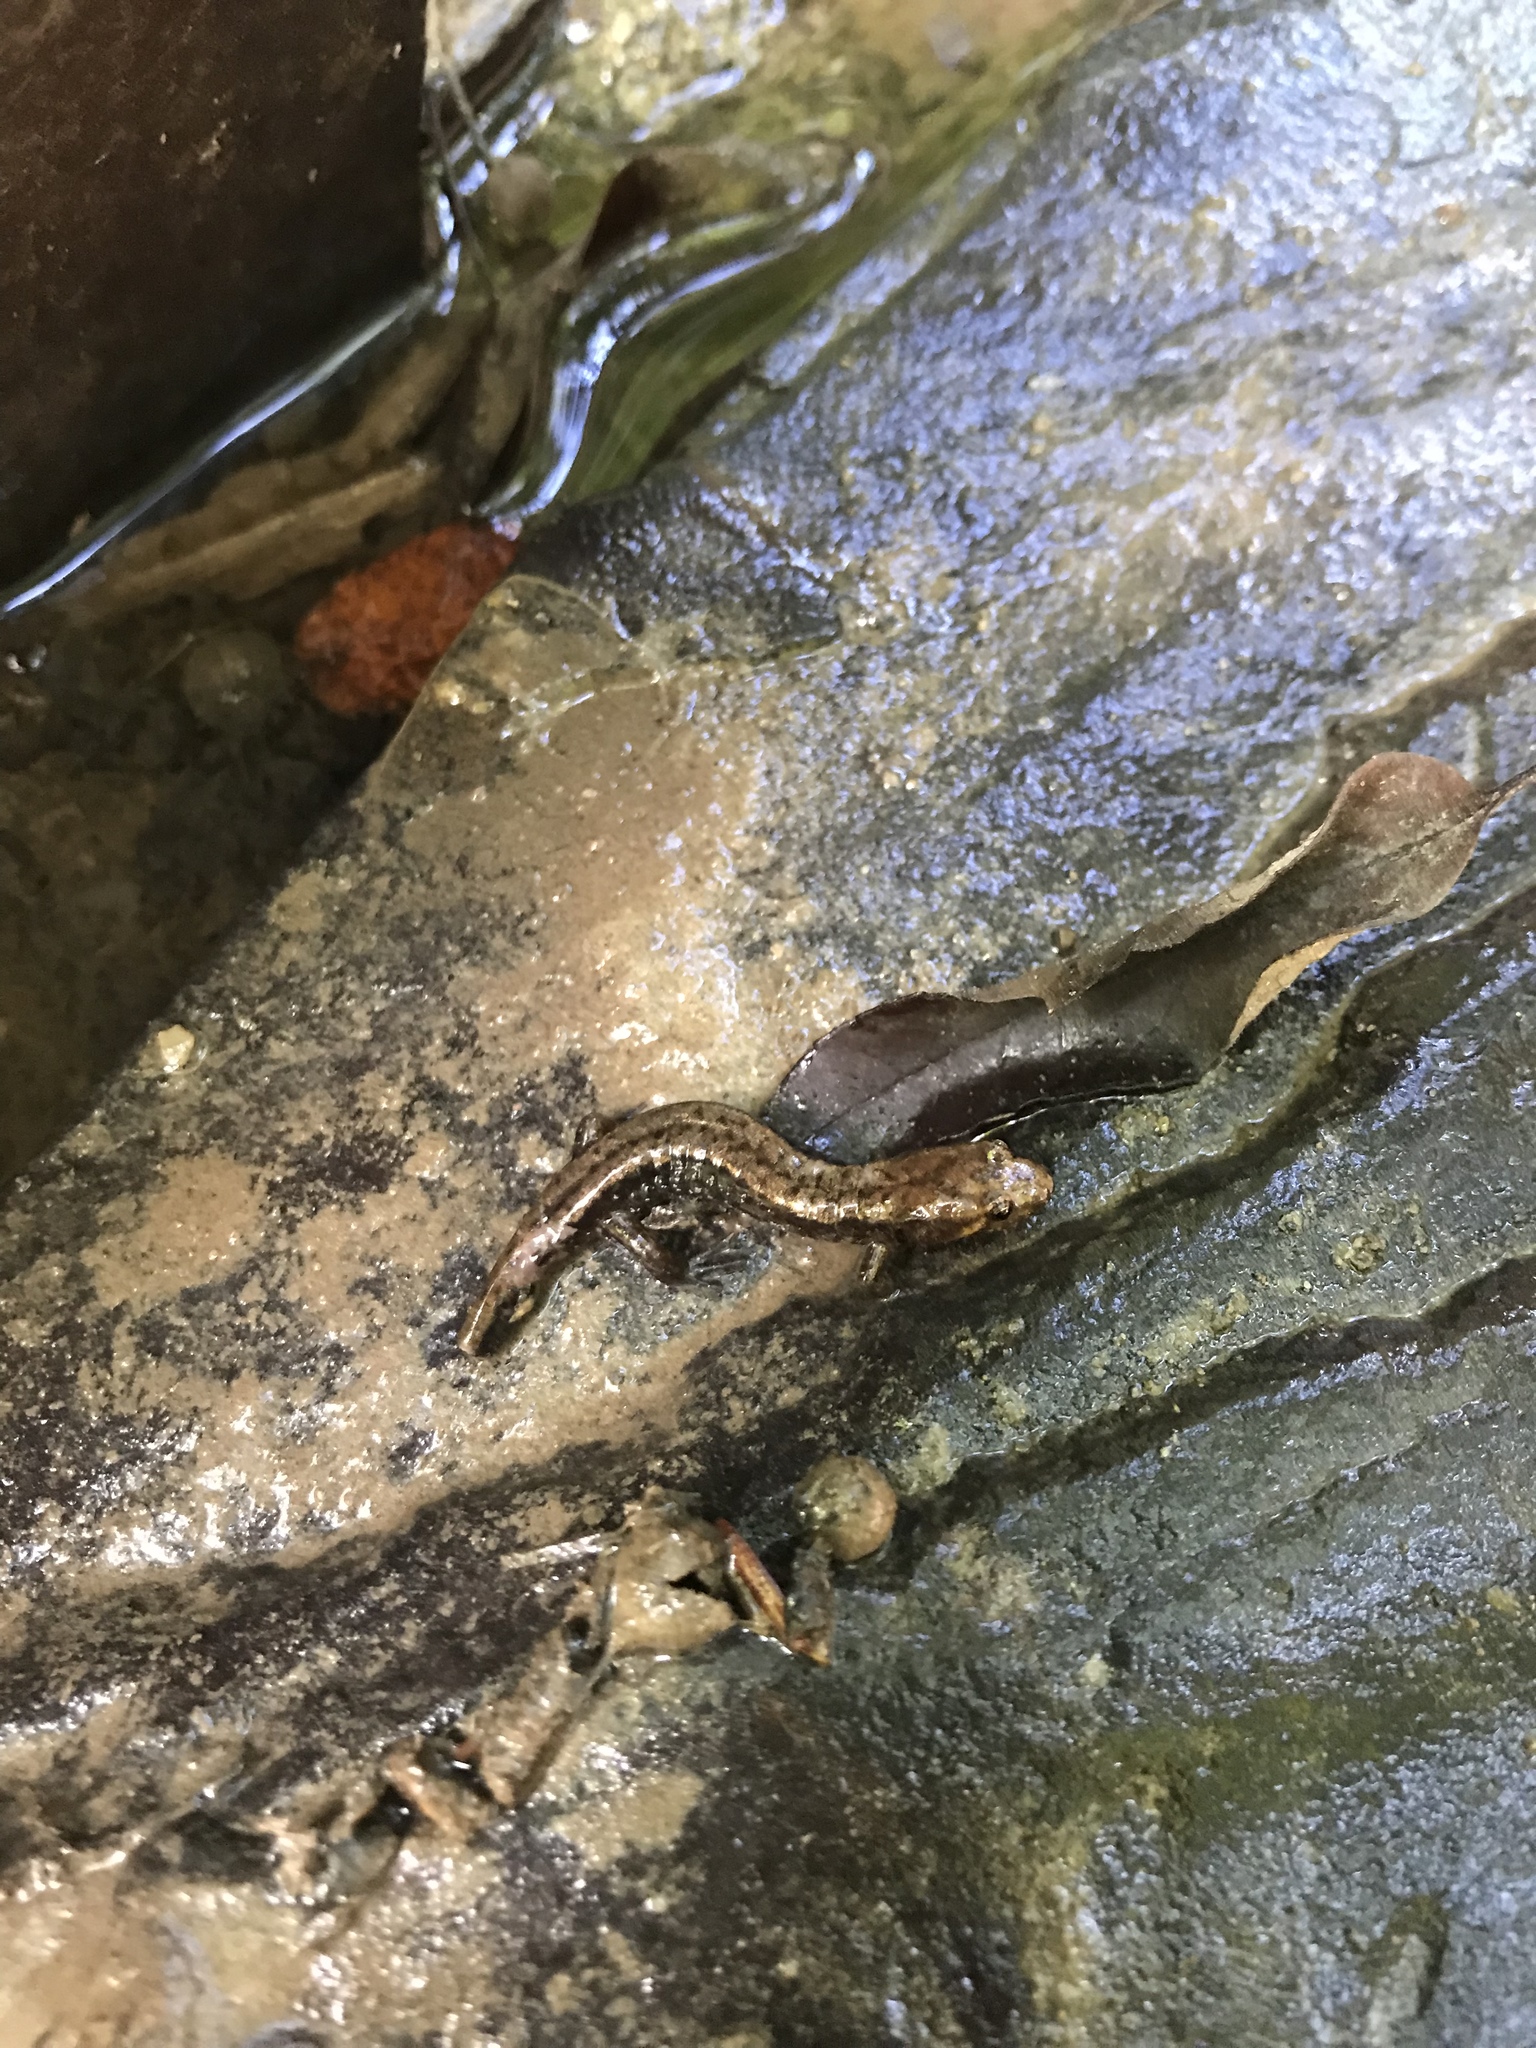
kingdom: Animalia
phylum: Chordata
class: Amphibia
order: Caudata
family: Plethodontidae
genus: Desmognathus
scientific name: Desmognathus ochrophaeus
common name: Allegheny mountain dusky salamander
